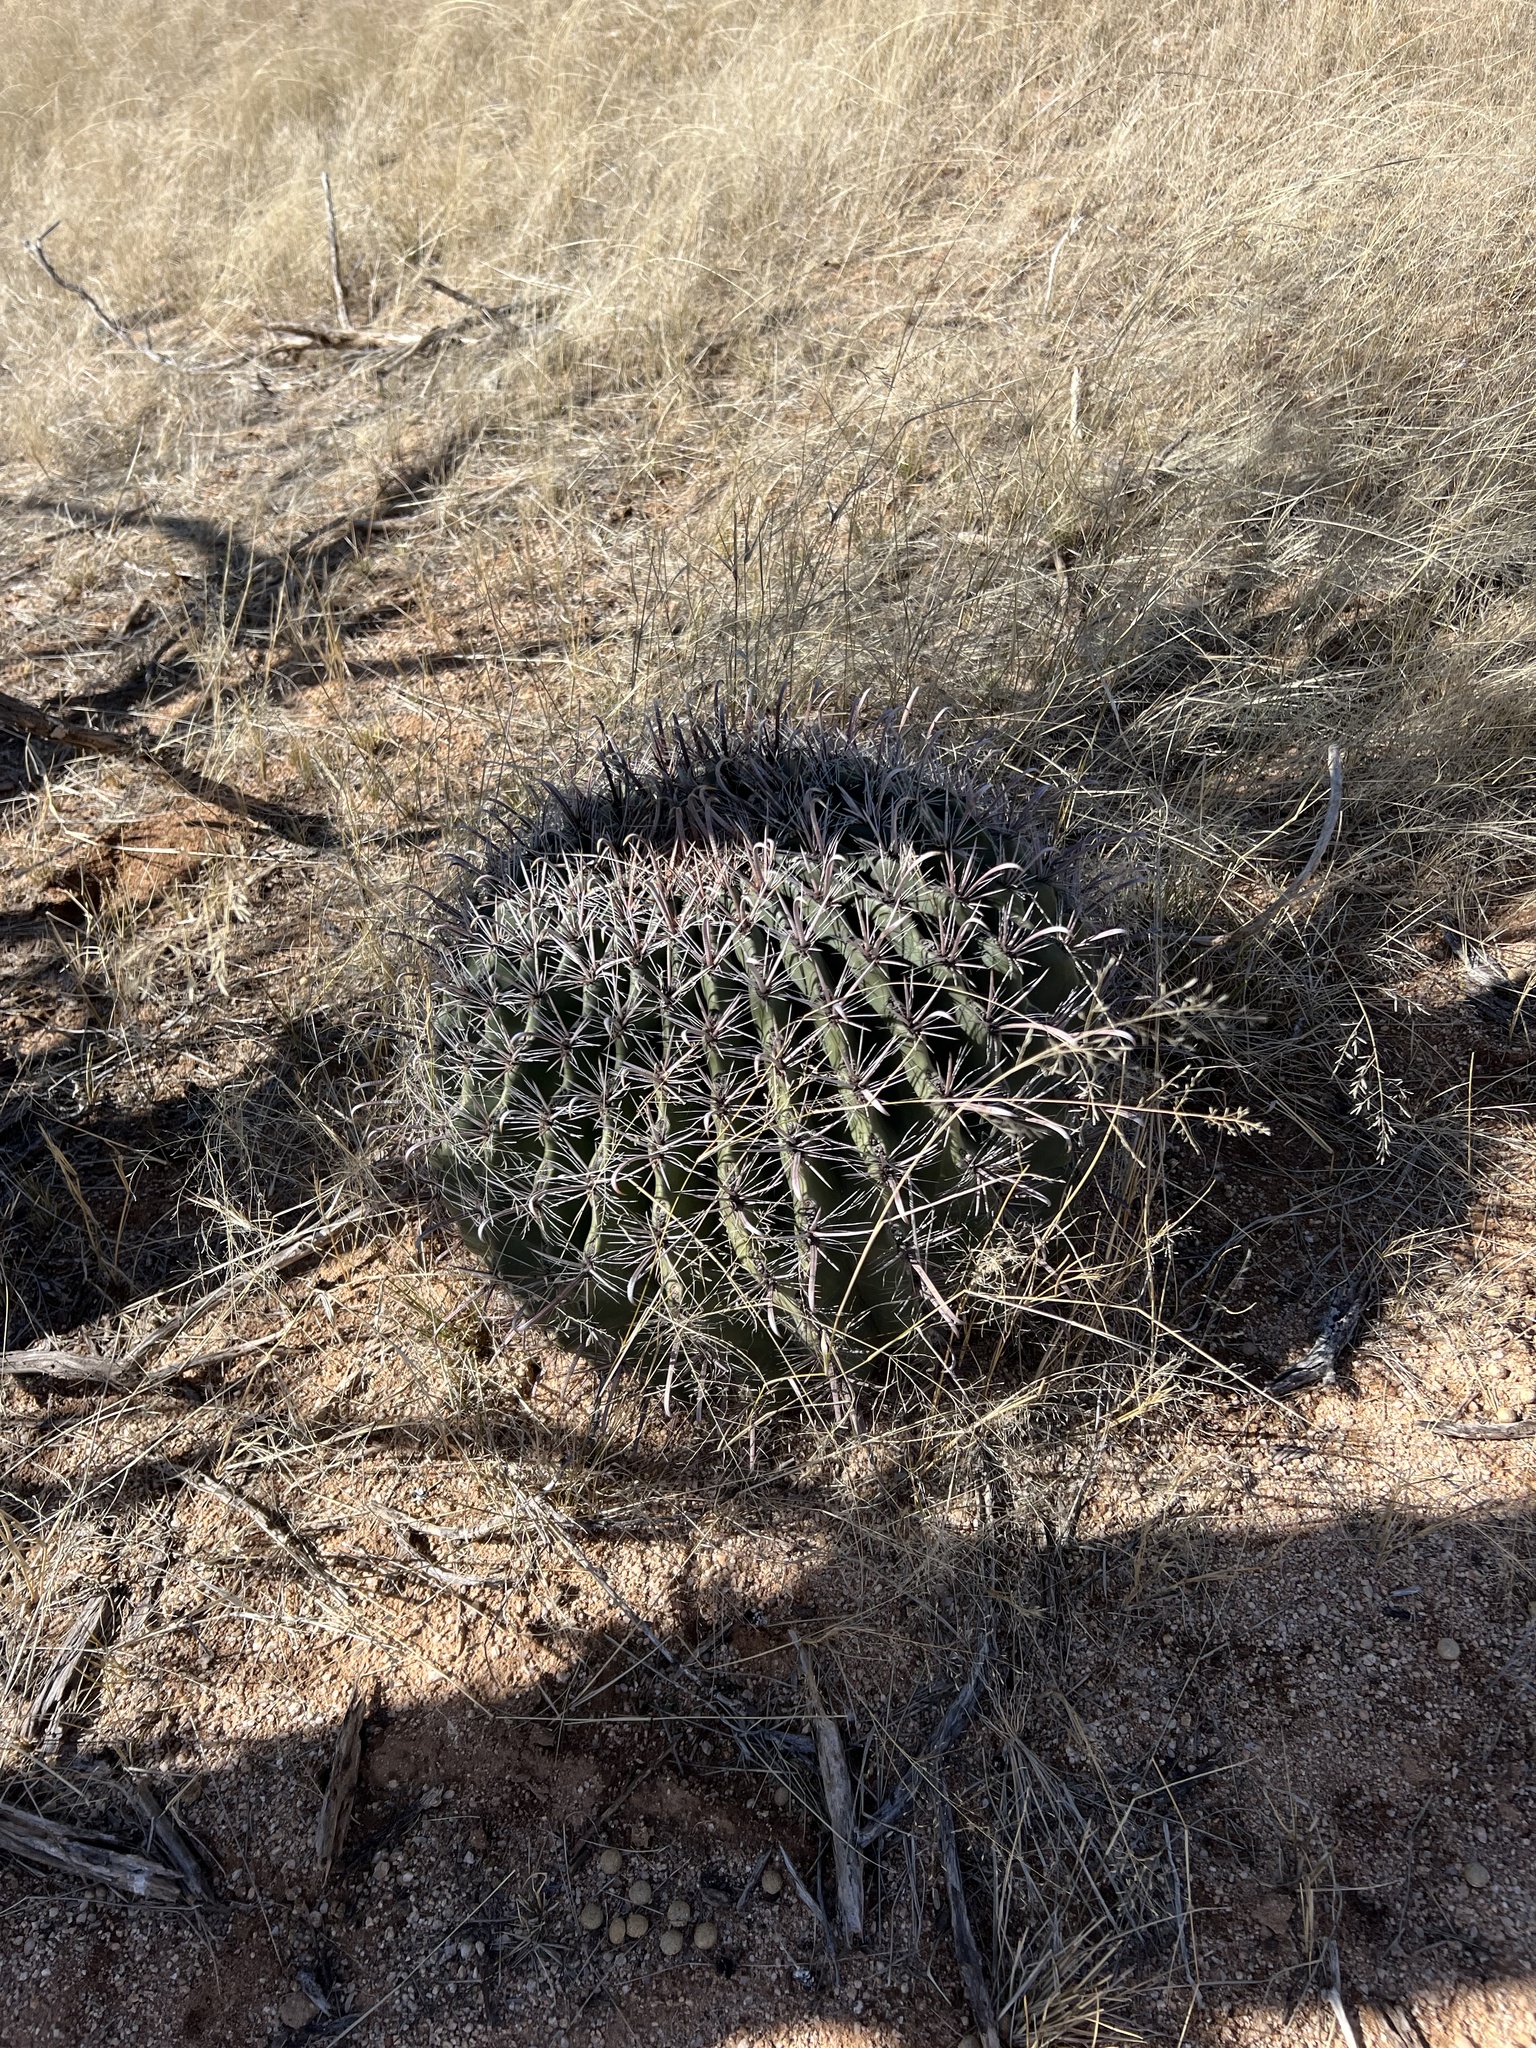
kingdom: Plantae
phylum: Tracheophyta
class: Magnoliopsida
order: Caryophyllales
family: Cactaceae
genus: Ferocactus
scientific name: Ferocactus wislizeni
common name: Candy barrel cactus
